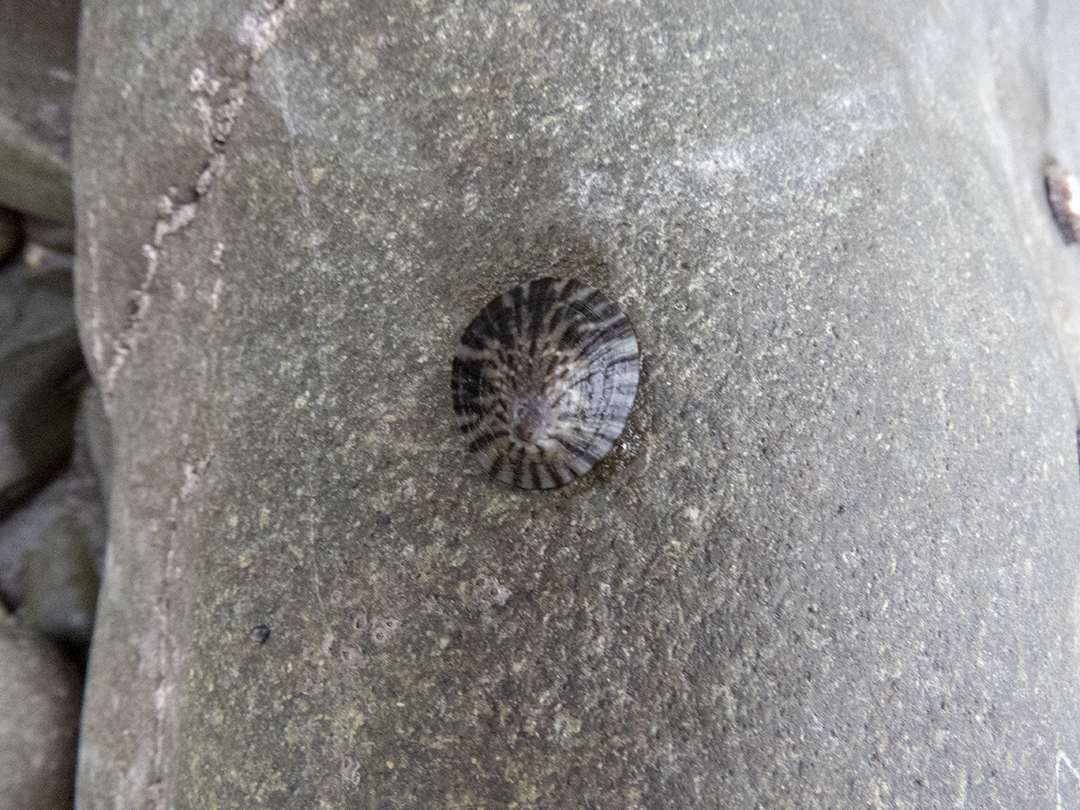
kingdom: Animalia
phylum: Mollusca
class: Gastropoda
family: Nacellidae
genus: Cellana
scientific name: Cellana radians
